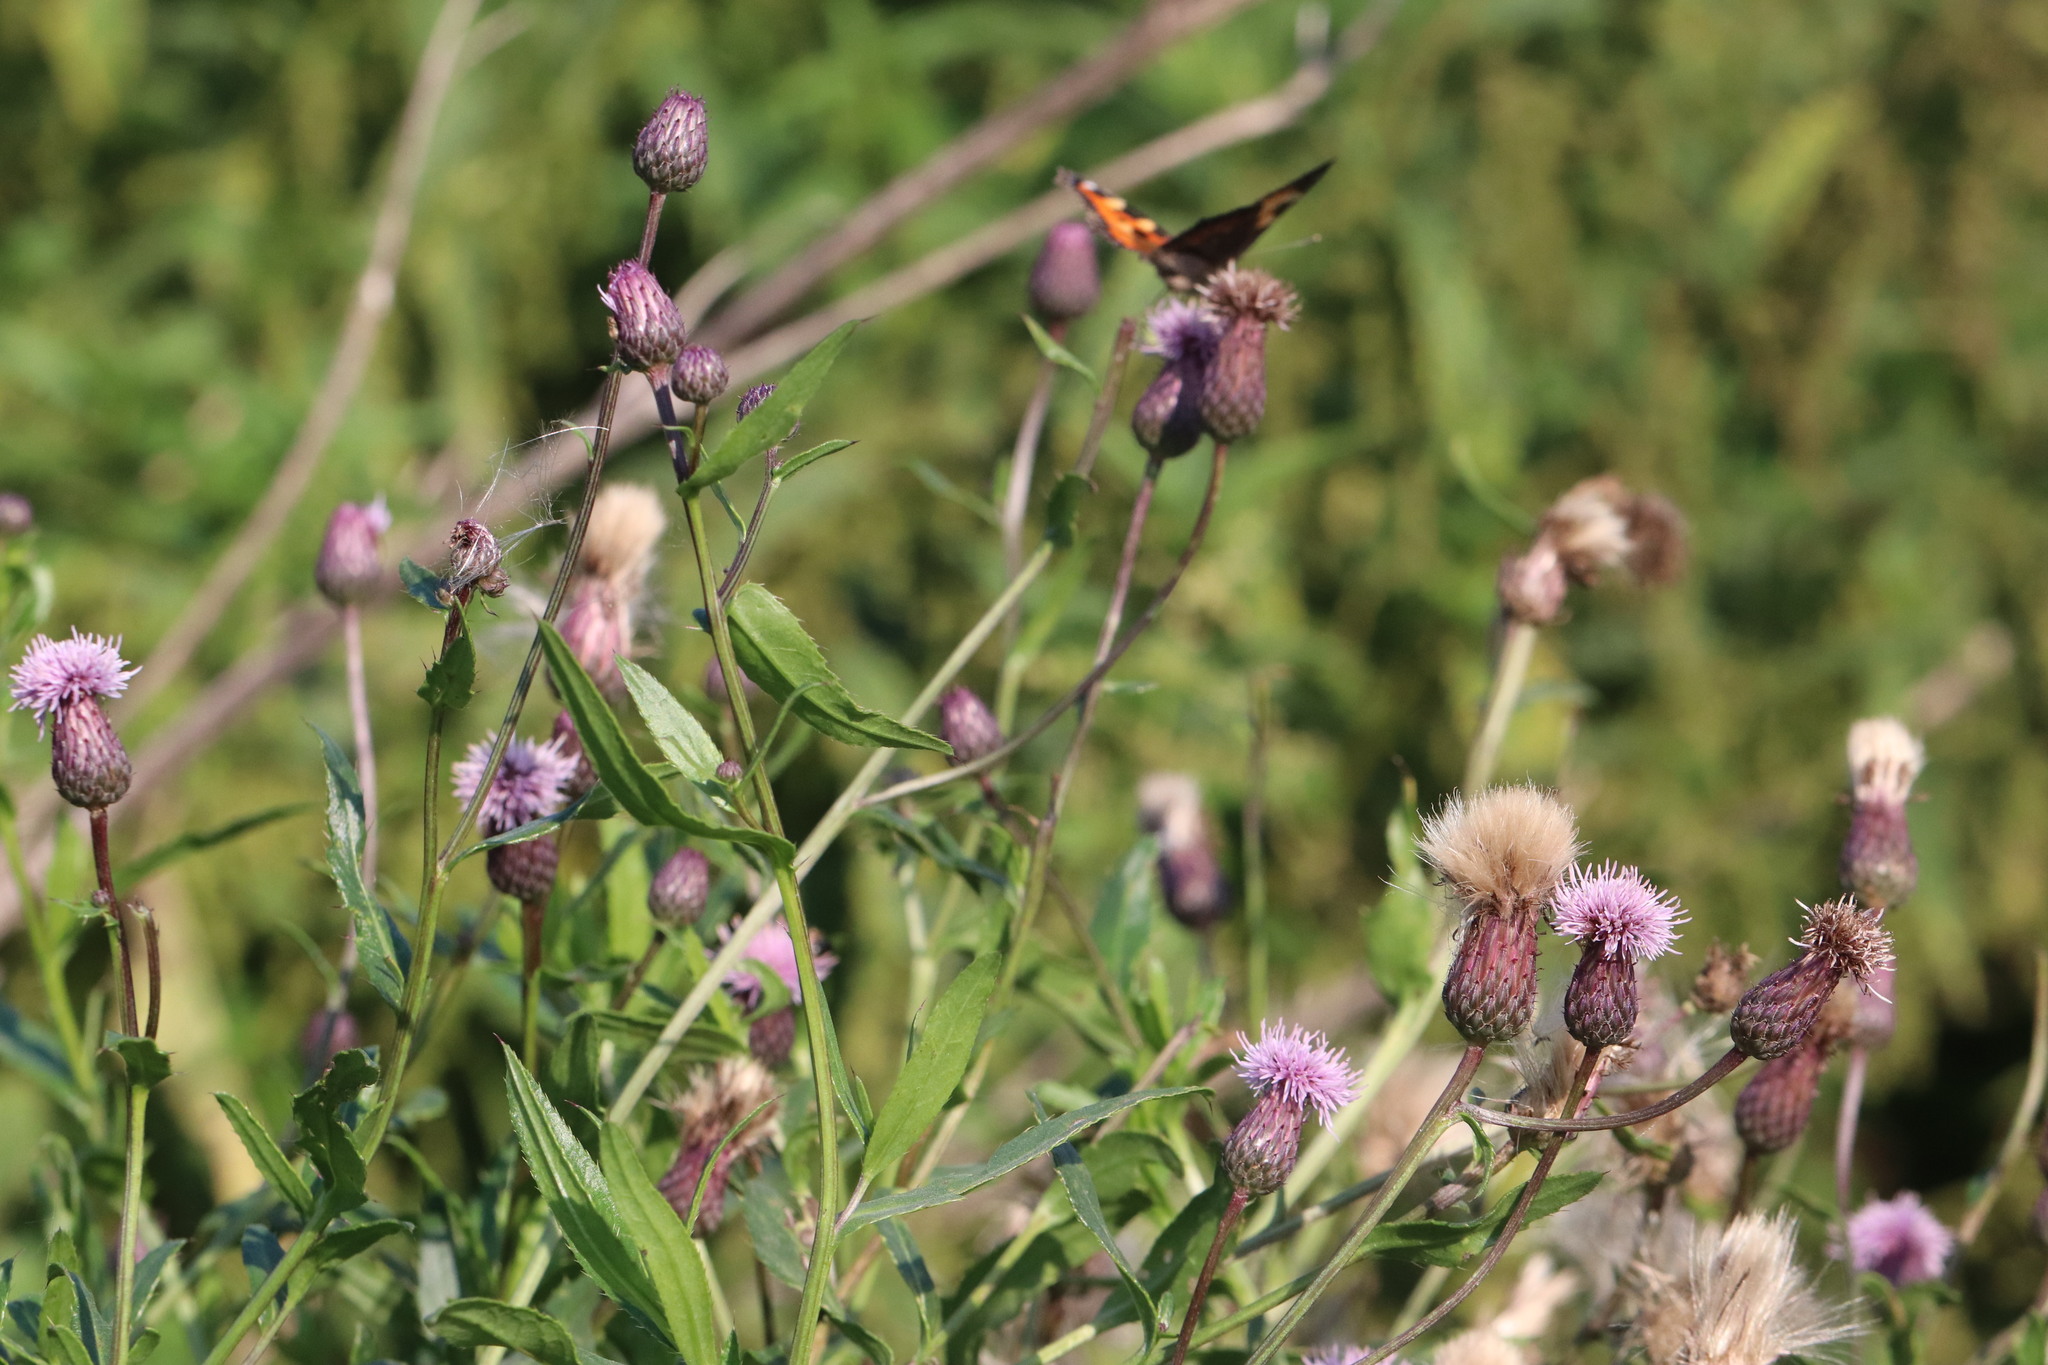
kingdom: Plantae
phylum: Tracheophyta
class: Magnoliopsida
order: Asterales
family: Asteraceae
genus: Cirsium
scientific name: Cirsium arvense
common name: Creeping thistle
